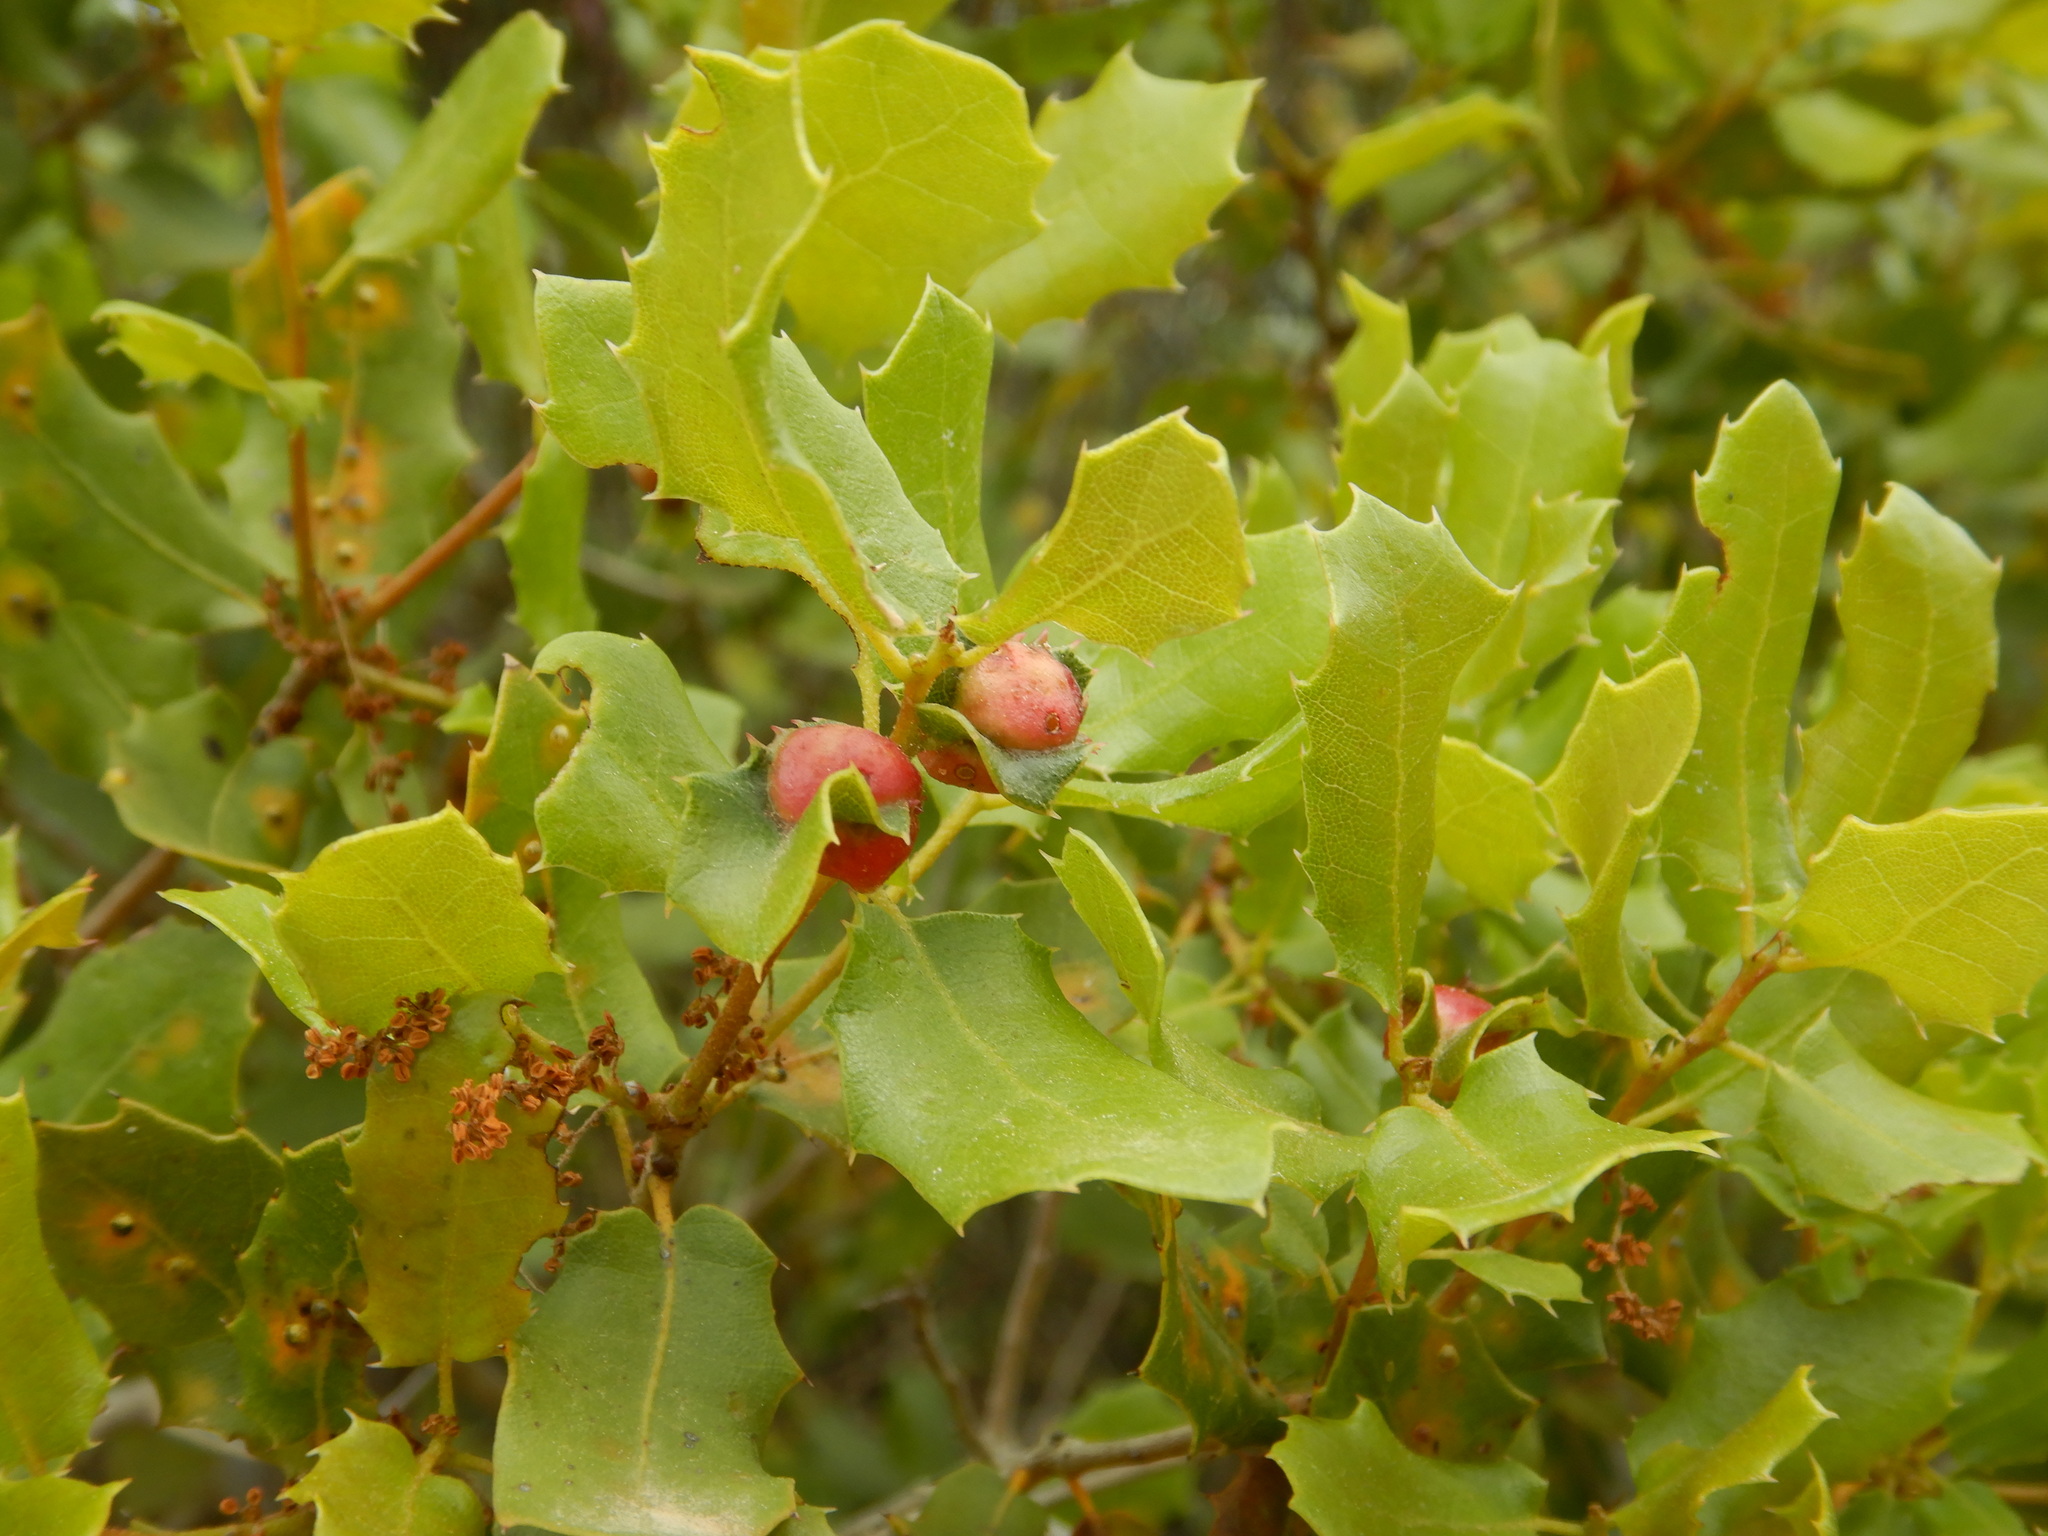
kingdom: Plantae
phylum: Tracheophyta
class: Magnoliopsida
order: Fagales
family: Fagaceae
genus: Quercus
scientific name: Quercus coccifera
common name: Kermes oak
